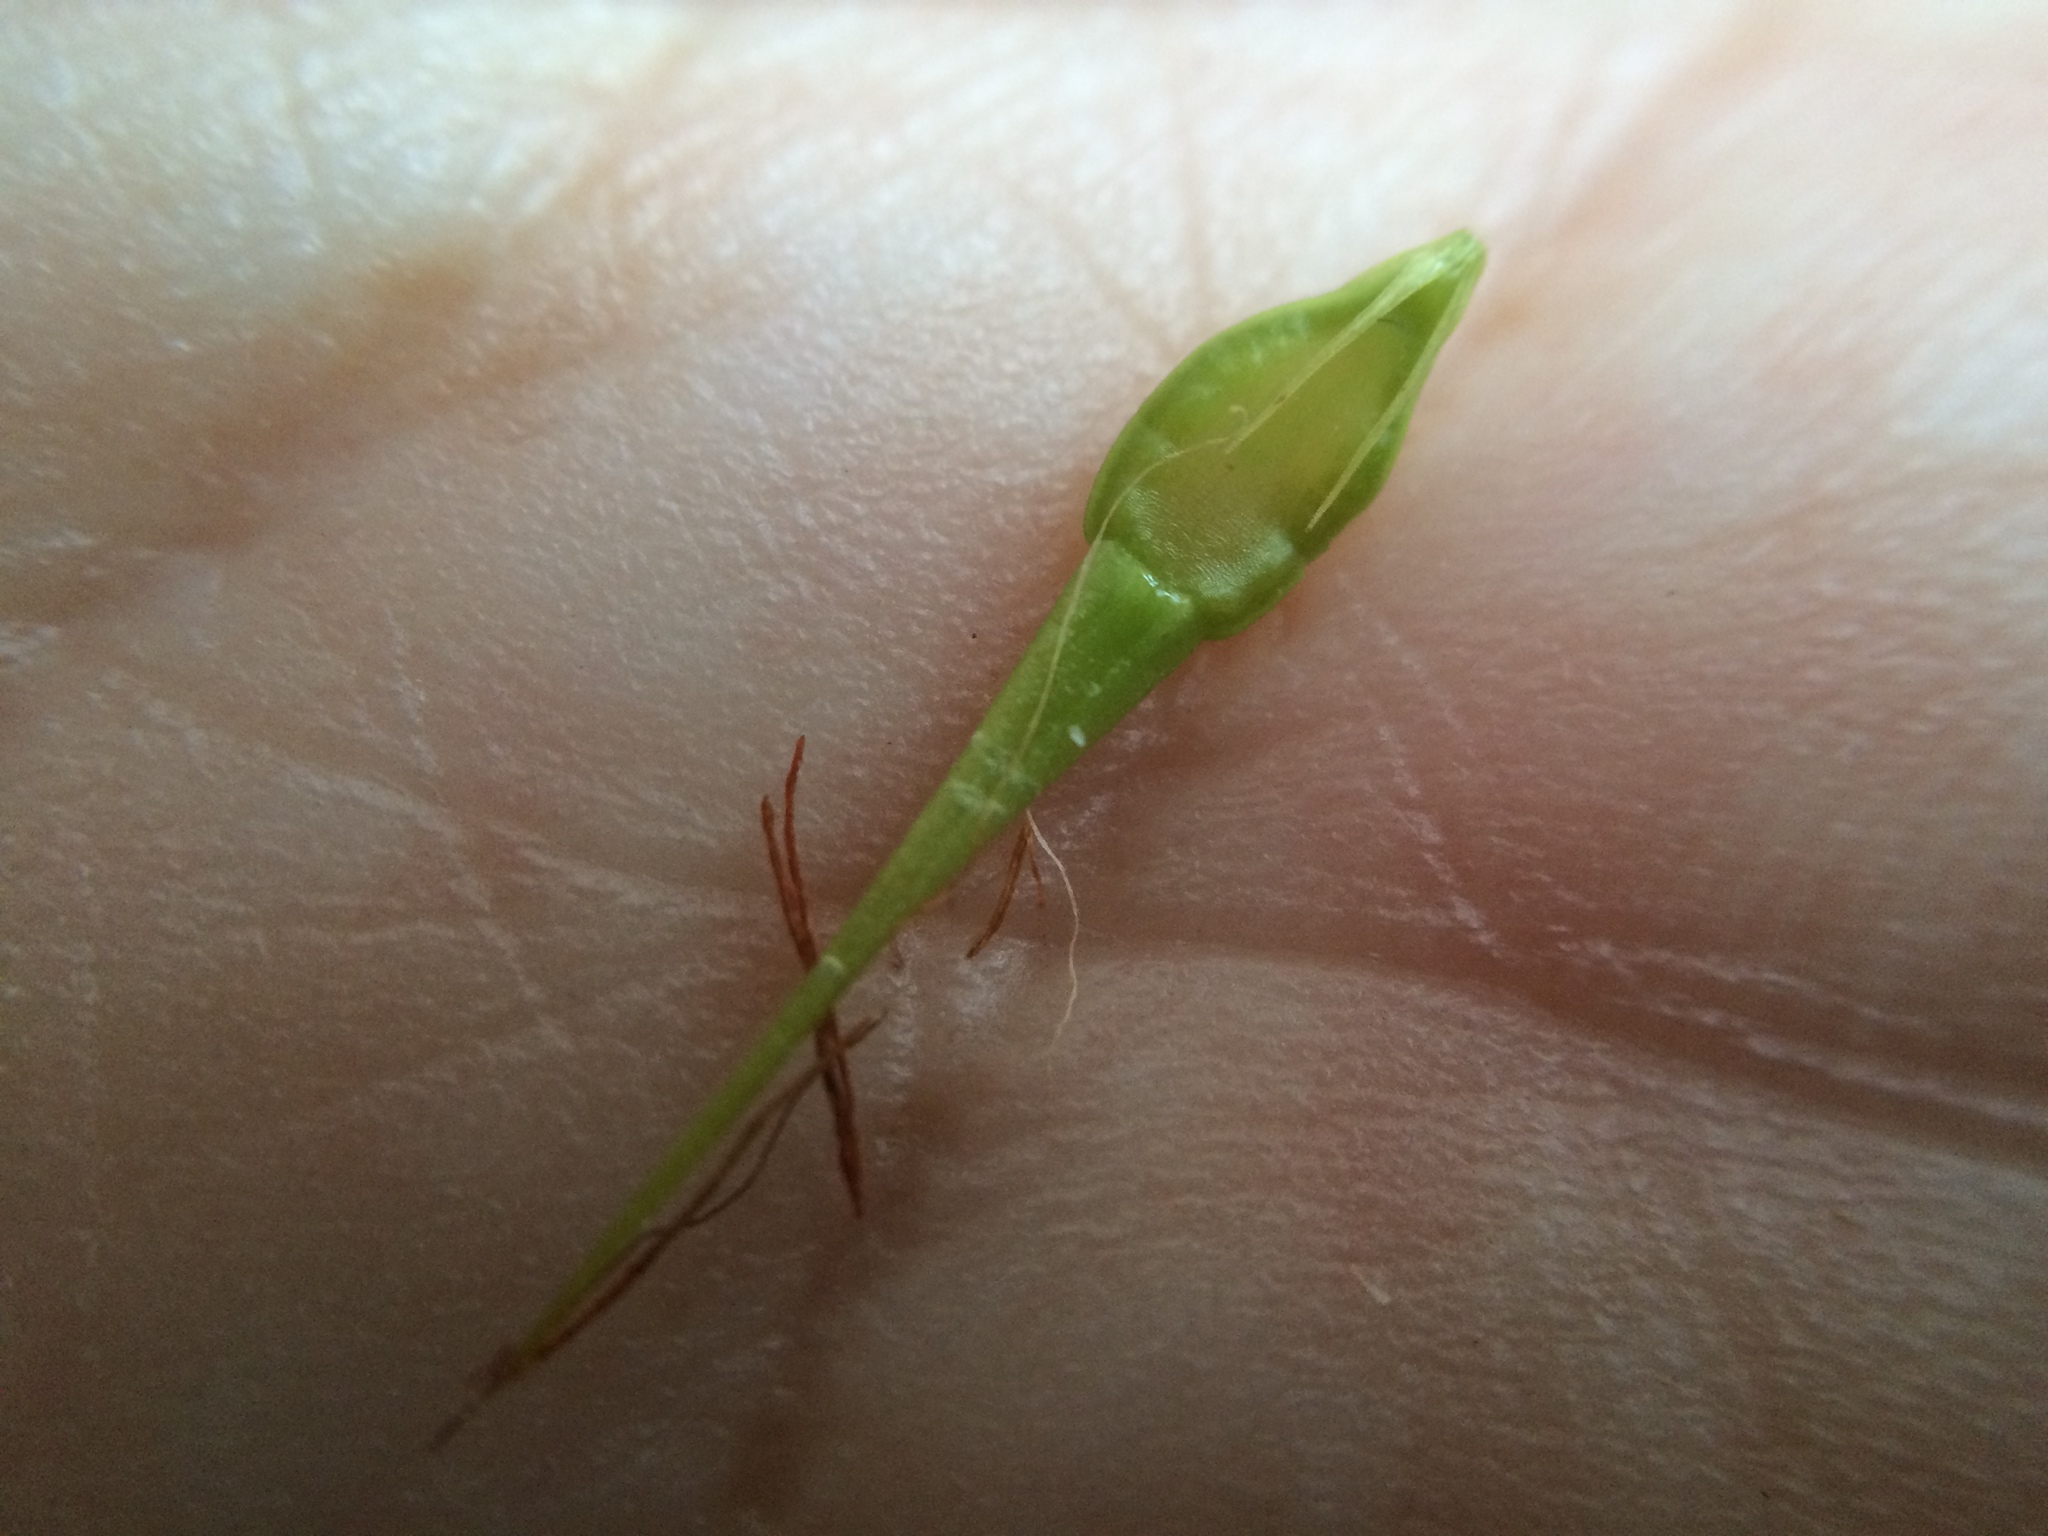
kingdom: Plantae
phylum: Tracheophyta
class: Liliopsida
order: Poales
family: Cyperaceae
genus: Rhynchospora
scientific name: Rhynchospora corniculata
